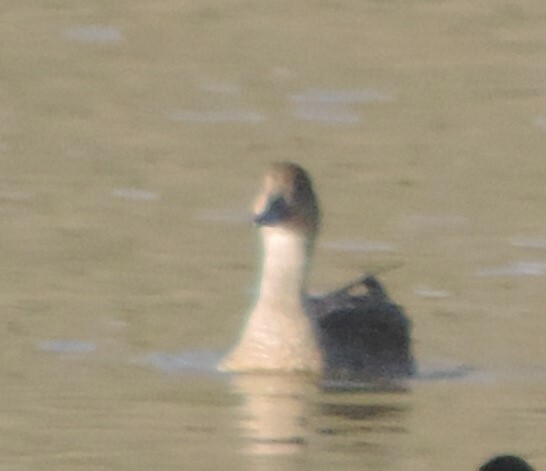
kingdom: Animalia
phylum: Chordata
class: Aves
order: Anseriformes
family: Anatidae
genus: Anas
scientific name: Anas acuta
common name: Northern pintail
